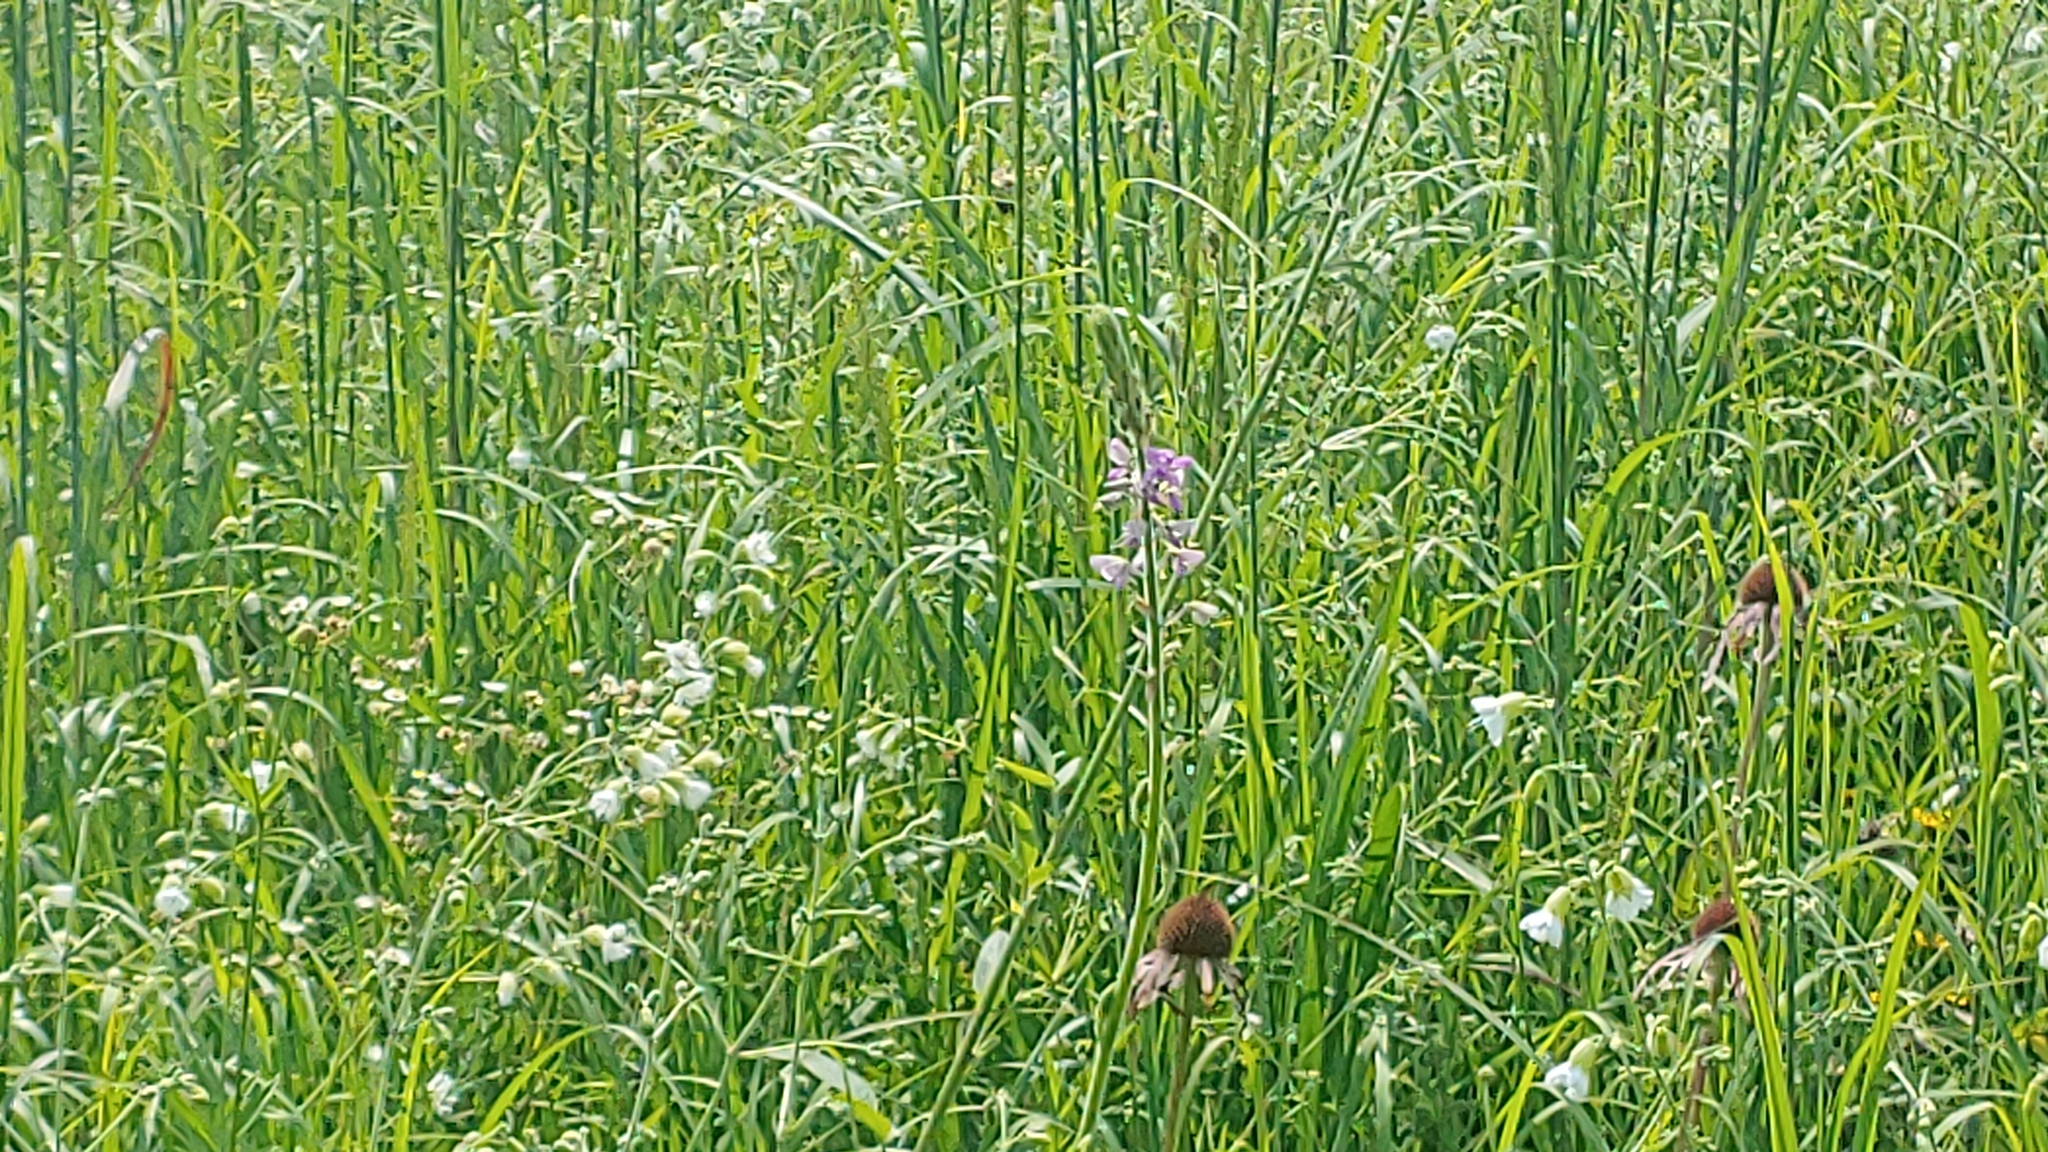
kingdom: Plantae
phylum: Tracheophyta
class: Magnoliopsida
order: Fabales
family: Fabaceae
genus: Desmodium
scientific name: Desmodium illinoense
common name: Illinois tick-clover
